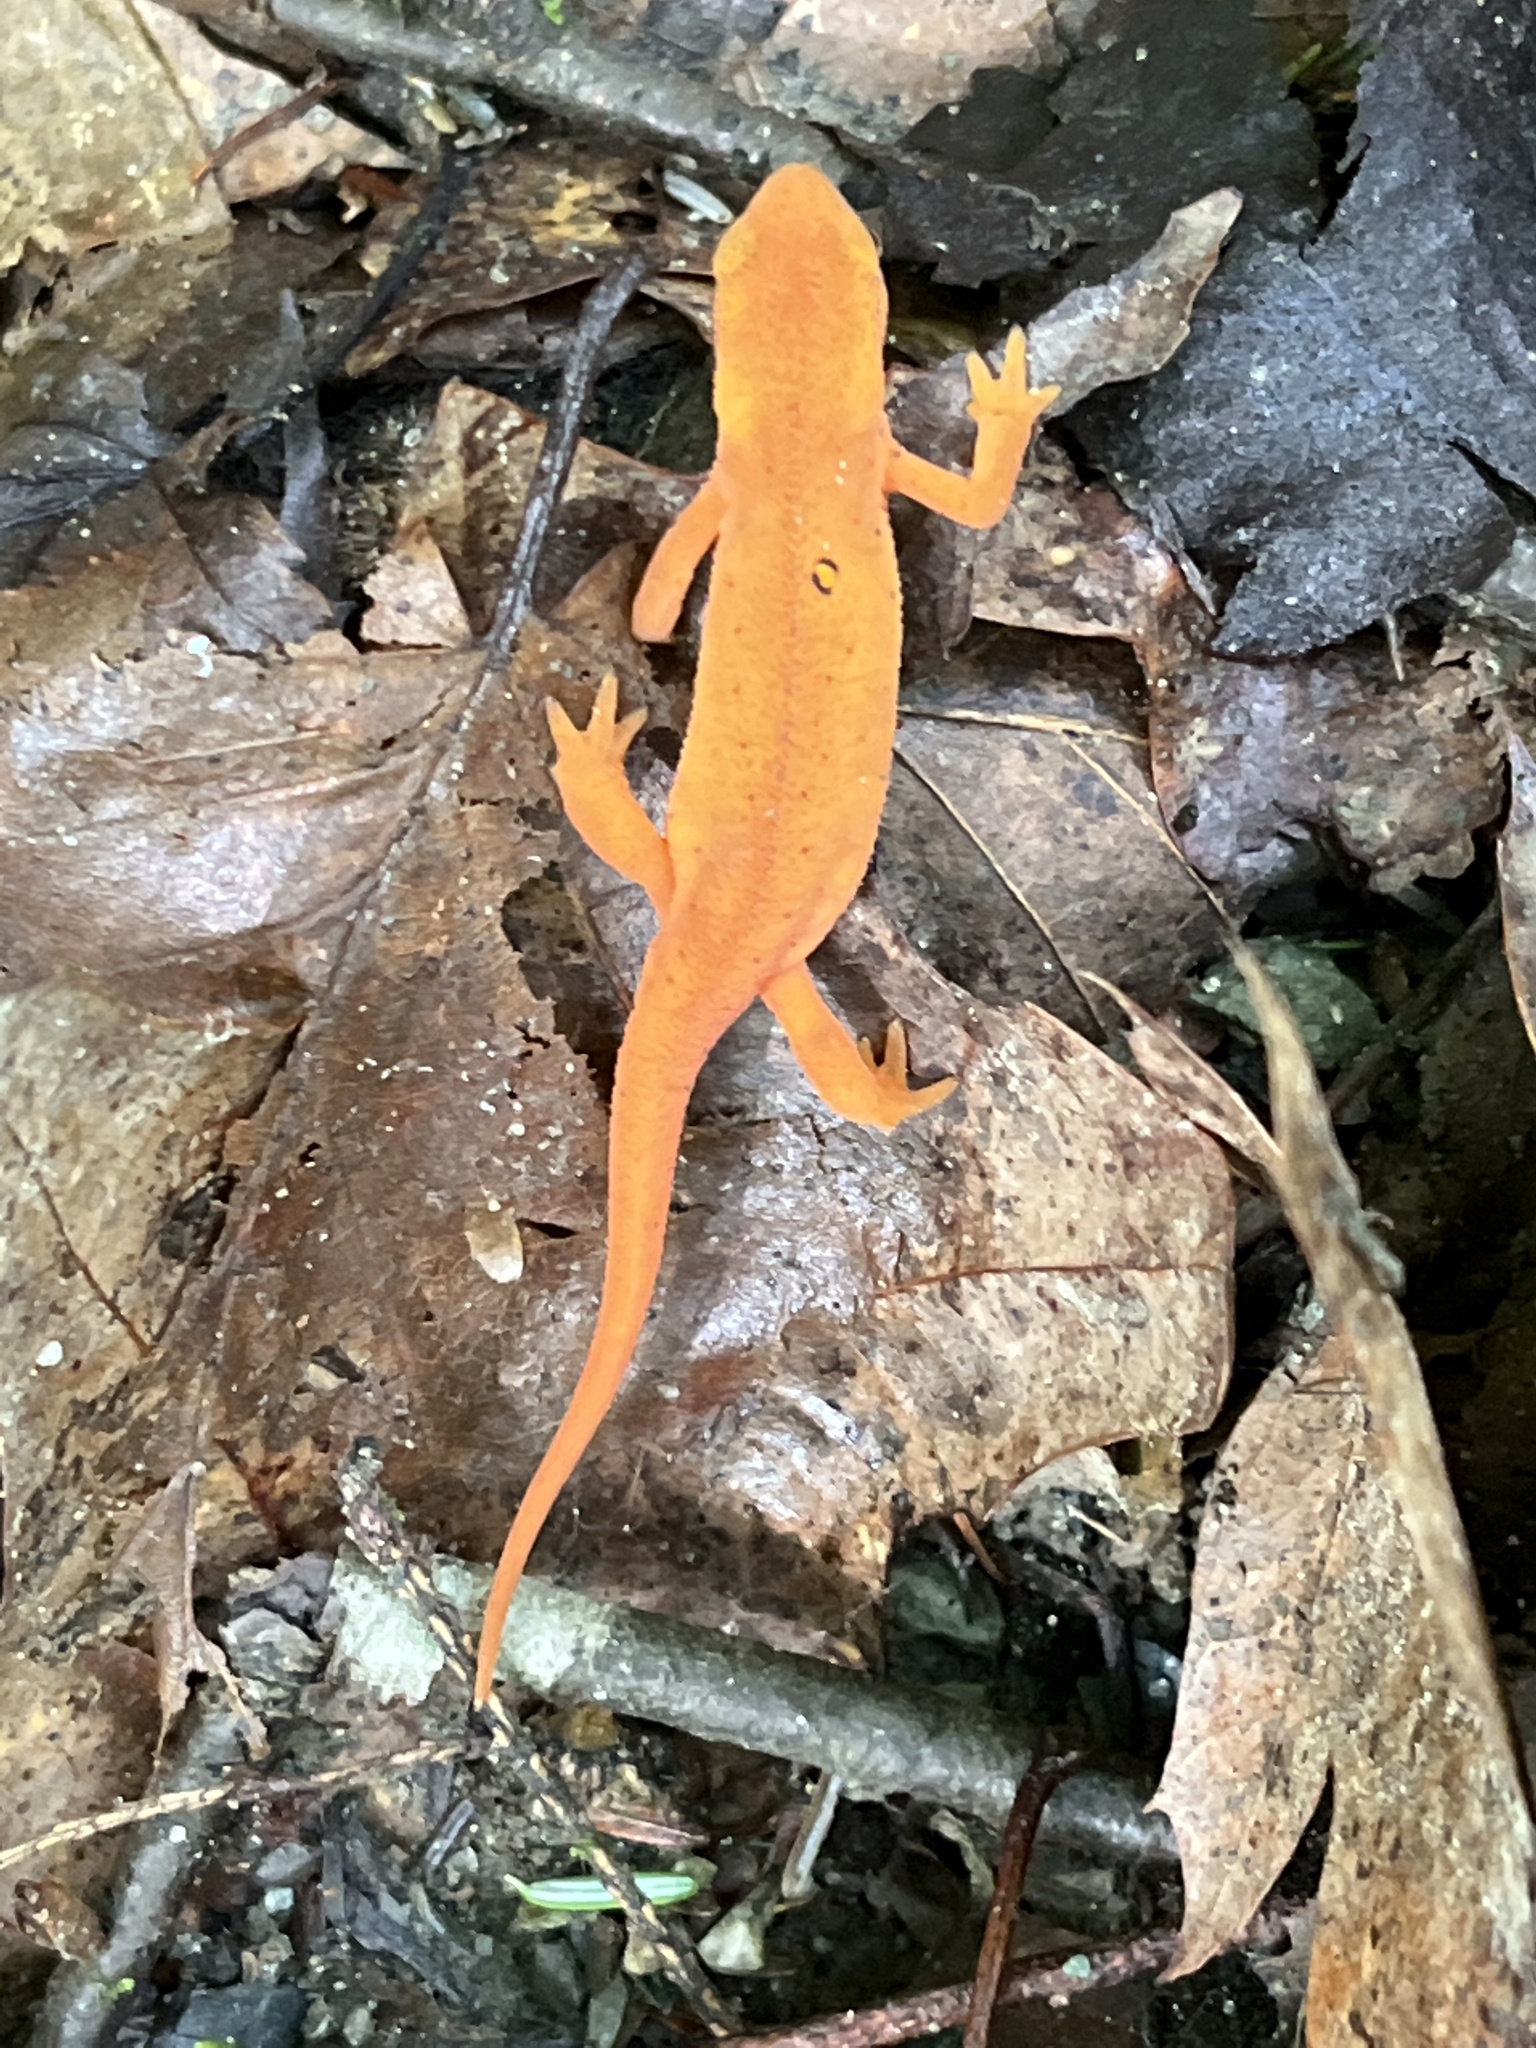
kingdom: Animalia
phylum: Chordata
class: Amphibia
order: Caudata
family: Salamandridae
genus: Notophthalmus
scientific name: Notophthalmus viridescens
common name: Eastern newt
